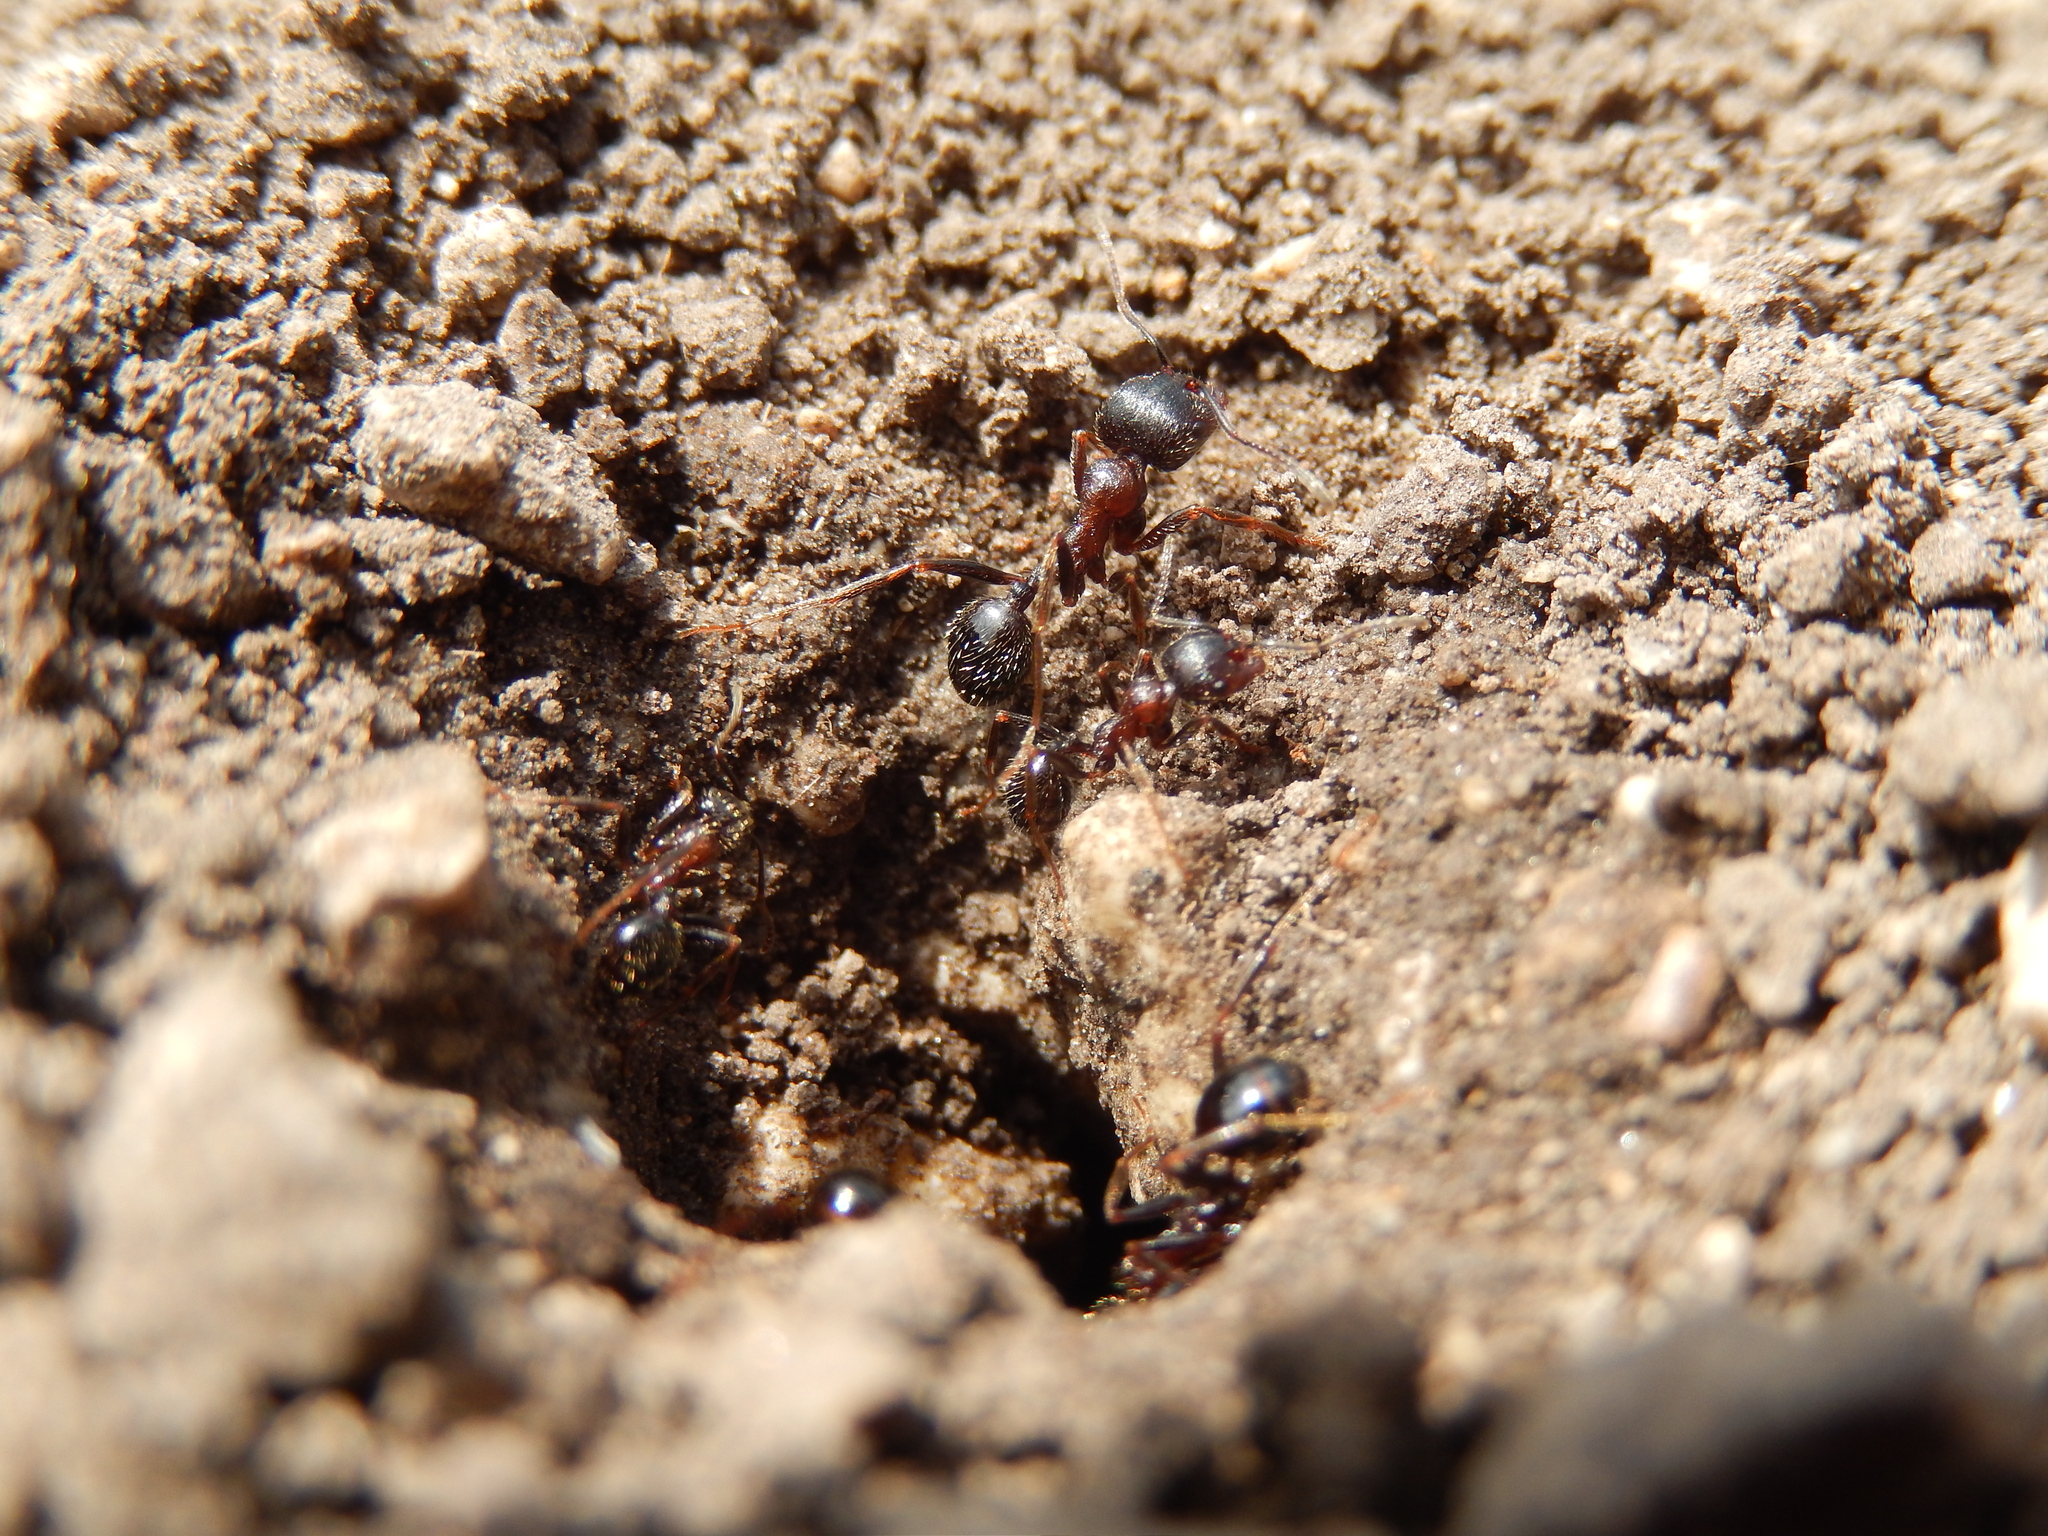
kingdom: Animalia
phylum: Arthropoda
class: Insecta
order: Hymenoptera
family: Formicidae
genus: Messor
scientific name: Messor structor
